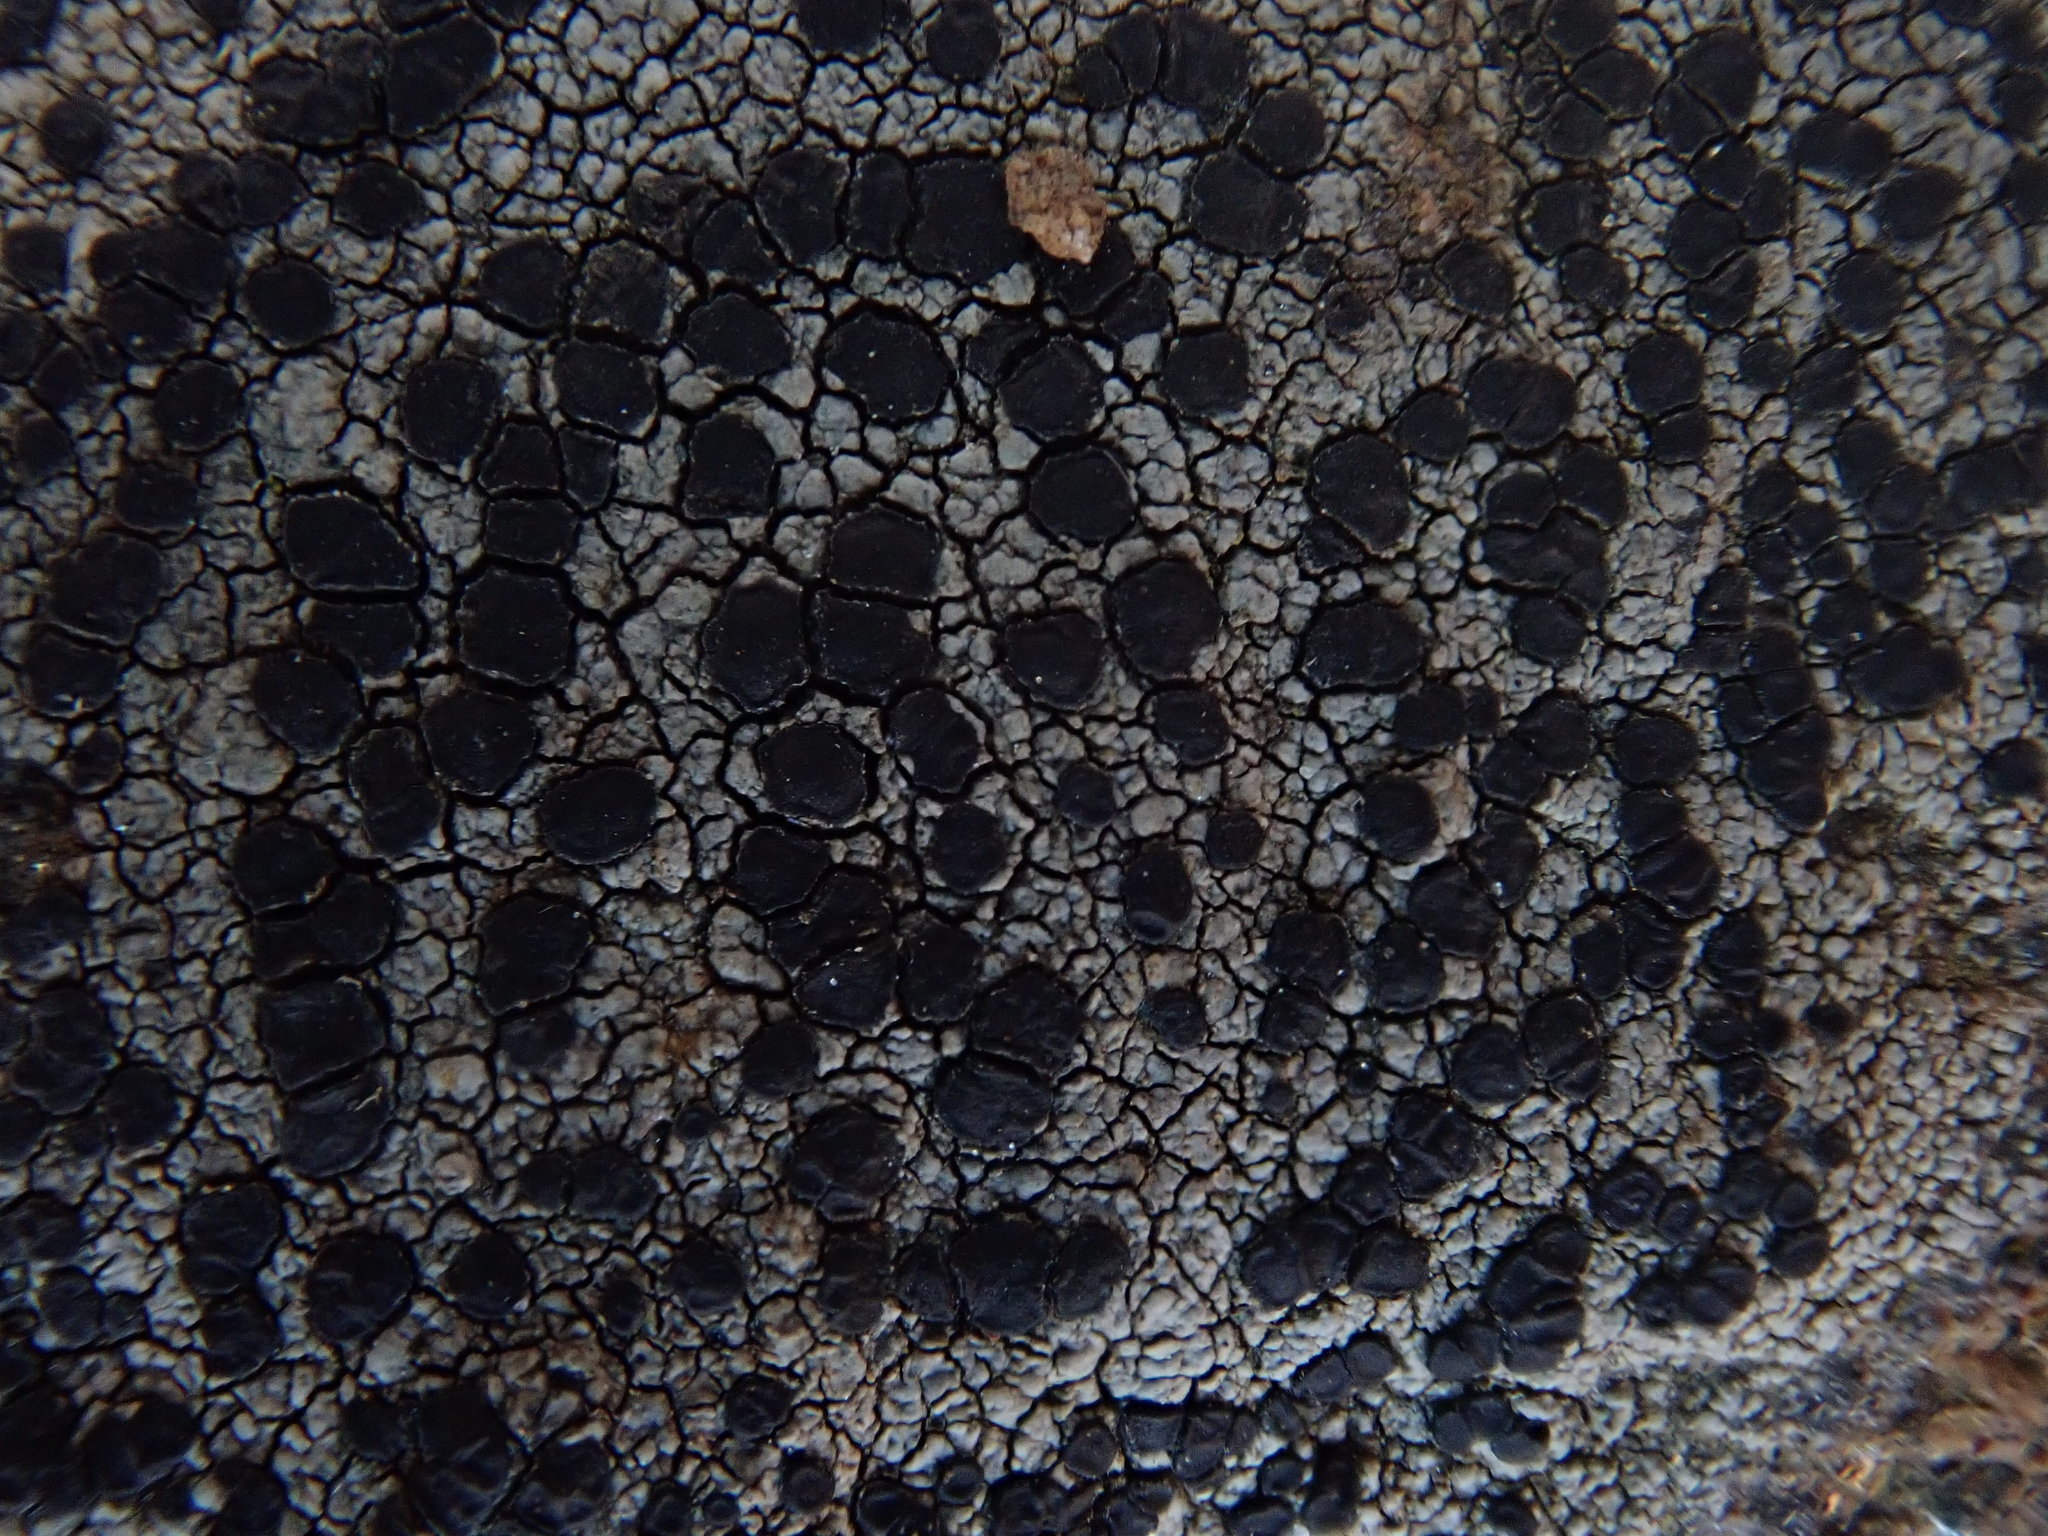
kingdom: Fungi
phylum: Ascomycota
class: Lecanoromycetes
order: Lecideales
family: Lecideaceae
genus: Porpidia
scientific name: Porpidia crustulata
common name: Concentric boulder lichen
